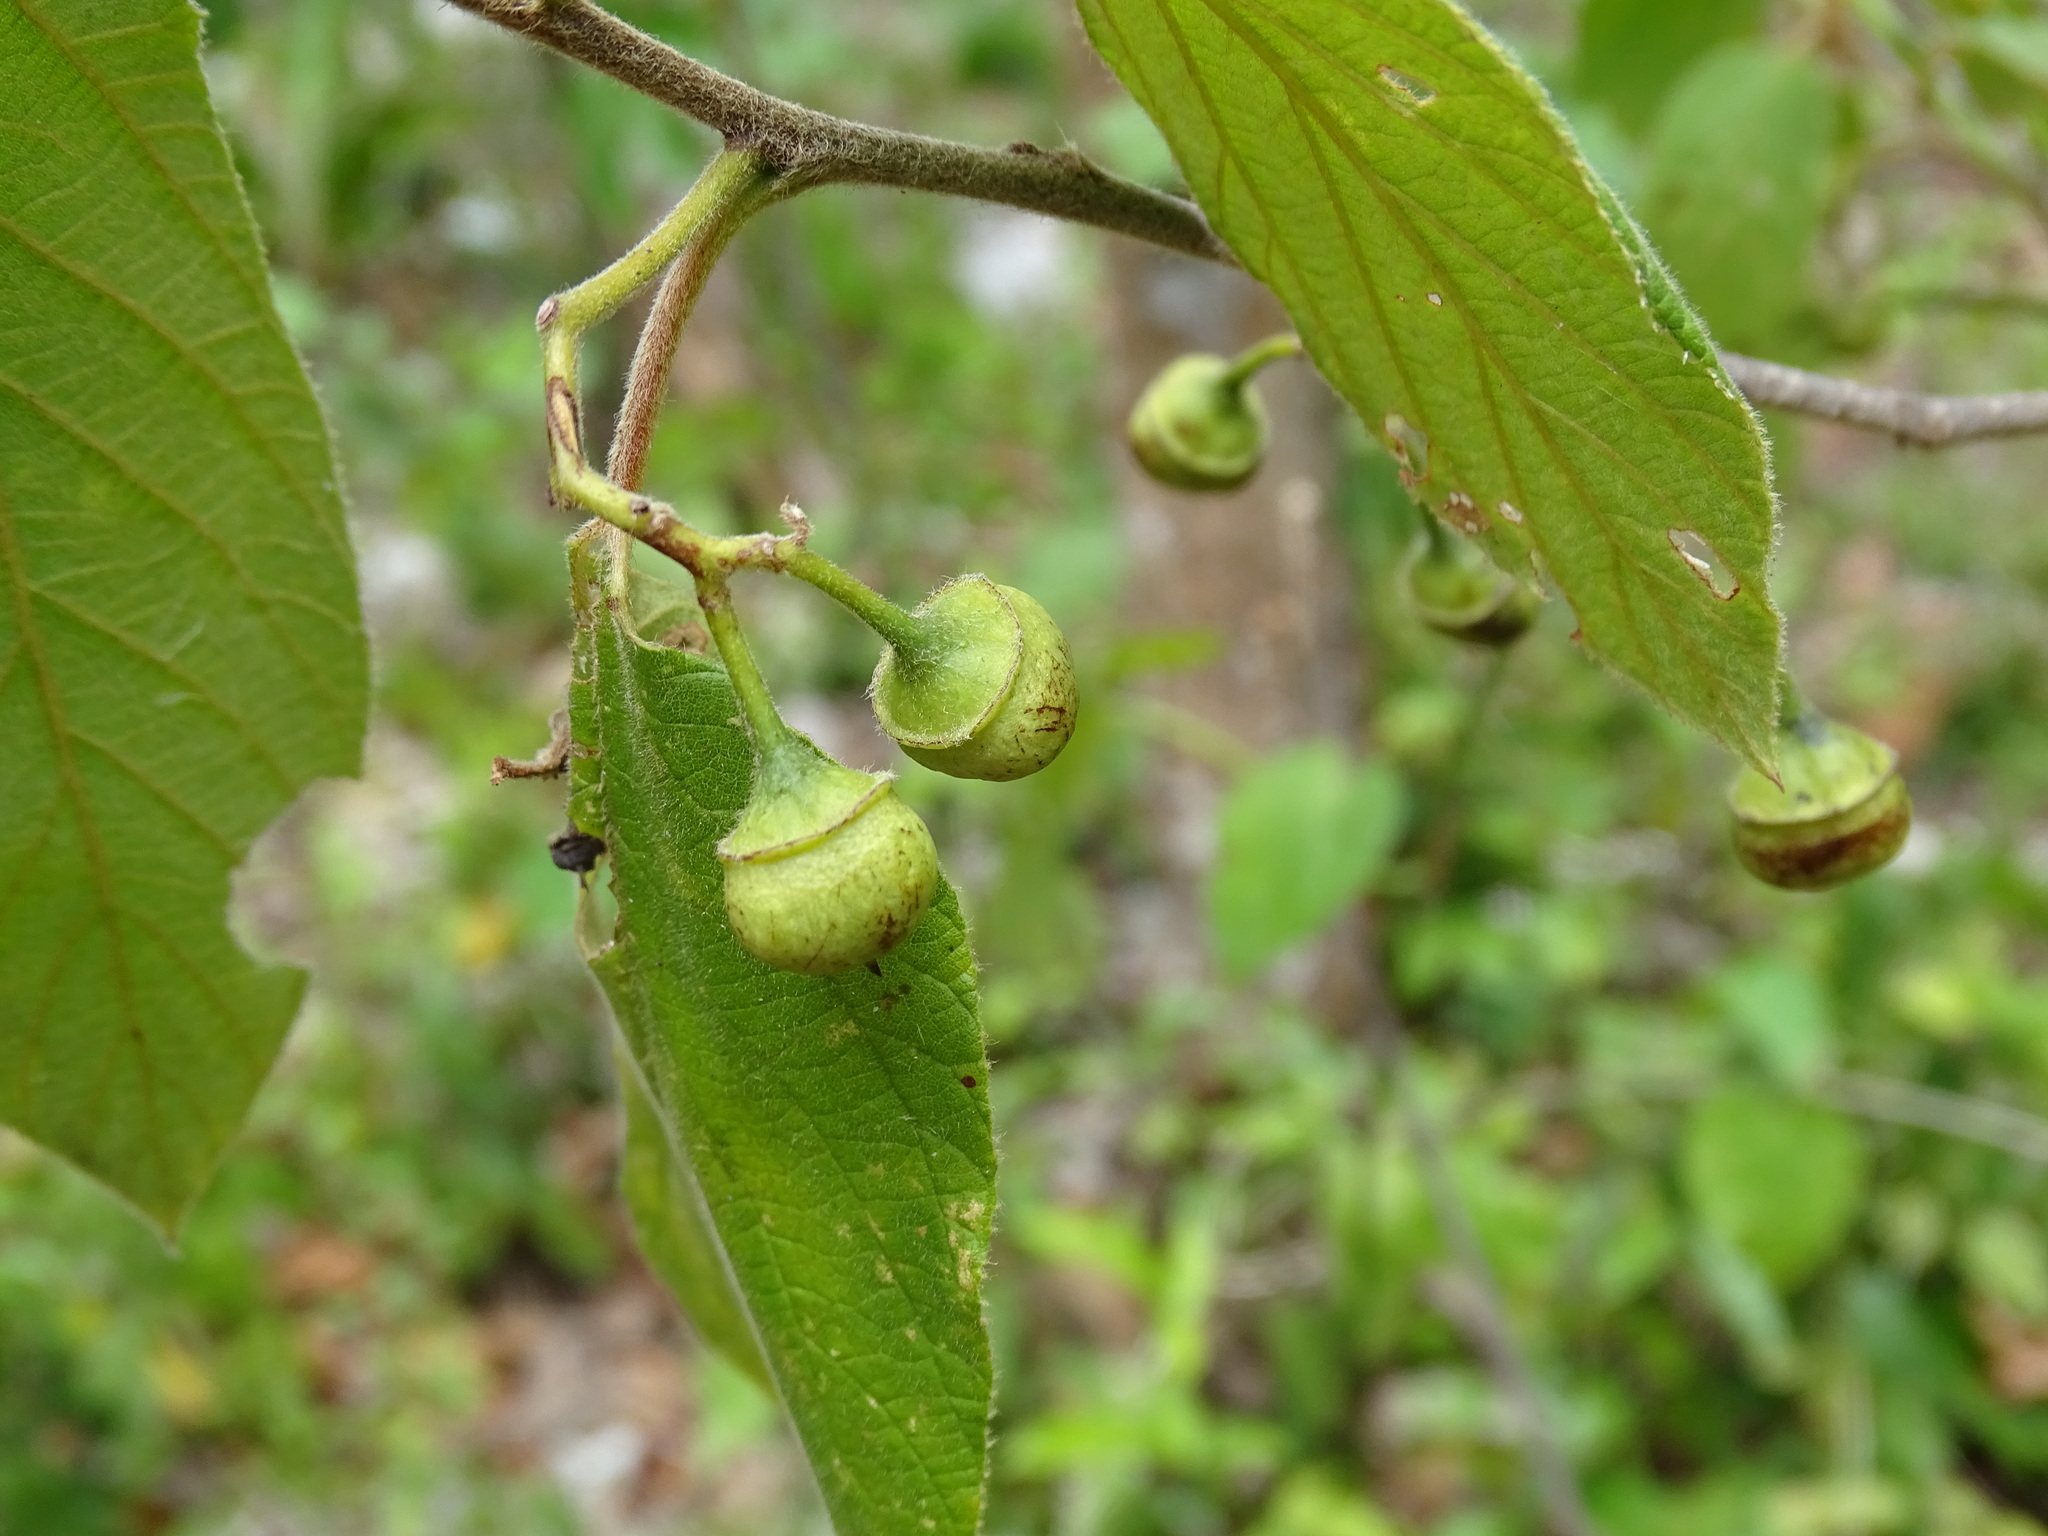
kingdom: Plantae
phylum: Tracheophyta
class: Magnoliopsida
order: Rosales
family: Rhamnaceae
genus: Colubrina
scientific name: Colubrina yucatanensis
